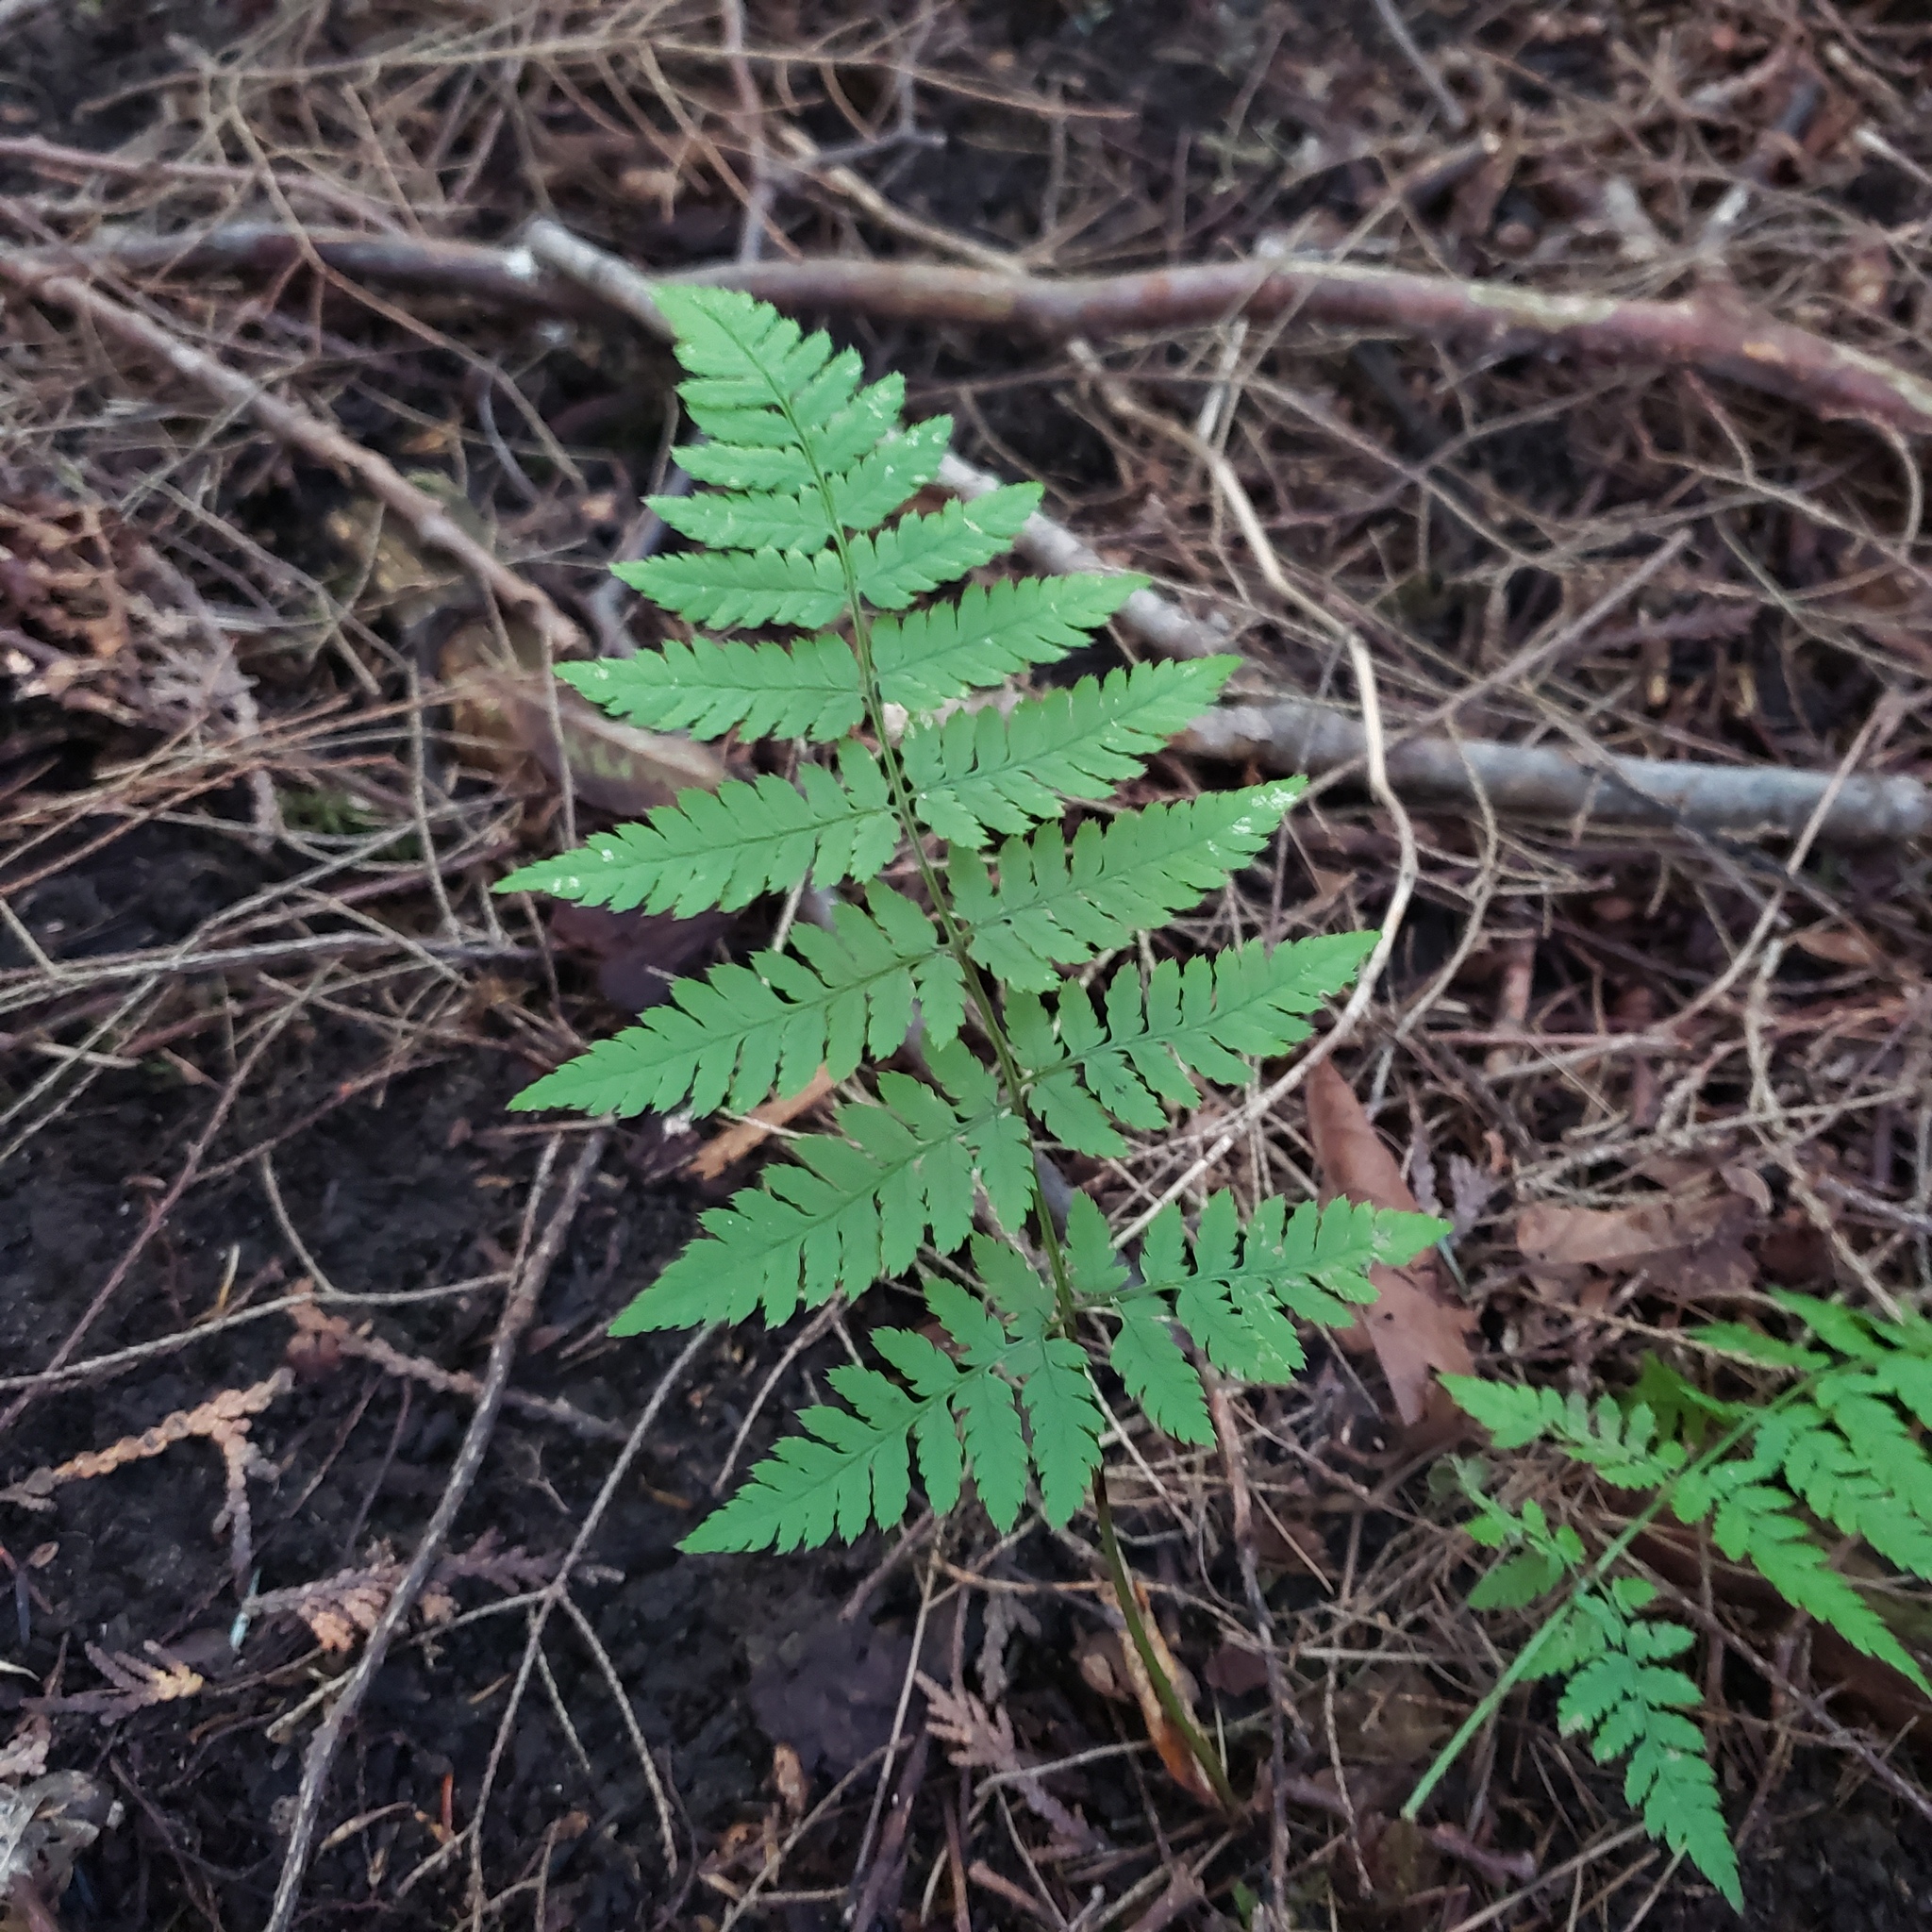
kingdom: Plantae
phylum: Tracheophyta
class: Polypodiopsida
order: Polypodiales
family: Dryopteridaceae
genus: Dryopteris
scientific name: Dryopteris carthusiana
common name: Narrow buckler-fern
